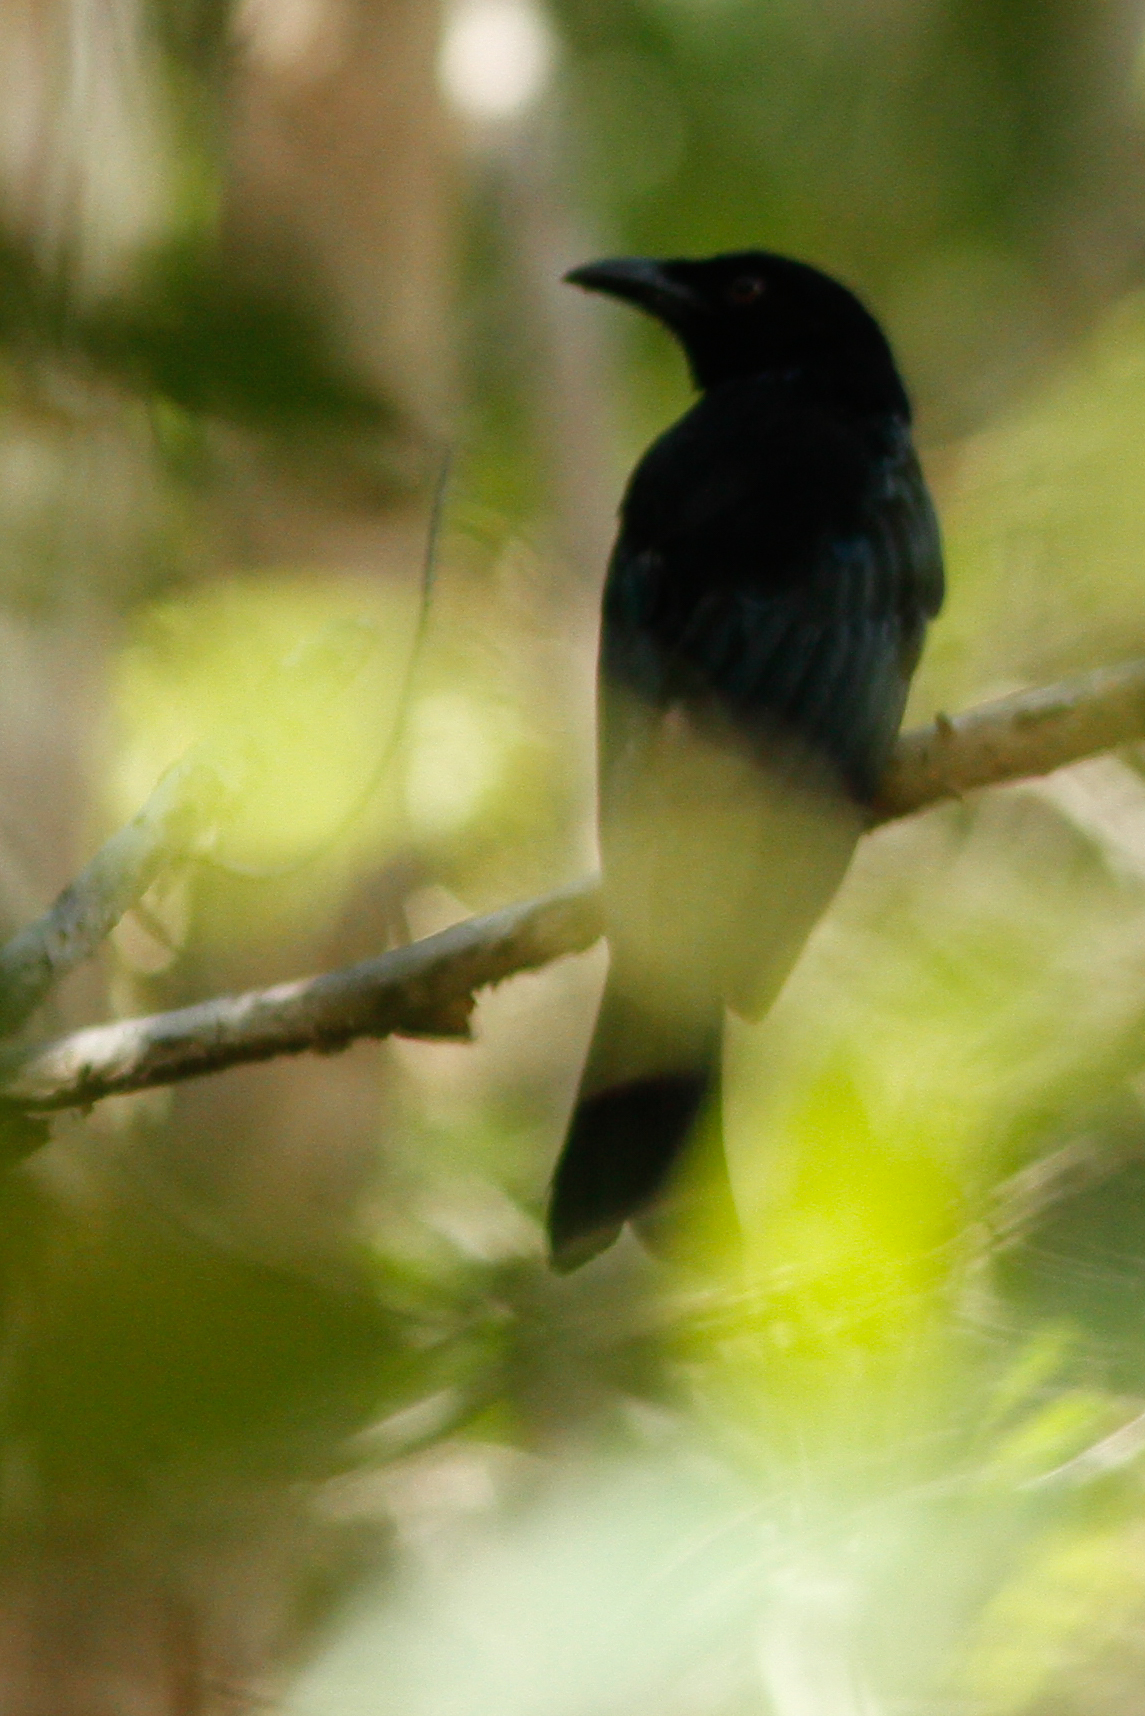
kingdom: Animalia
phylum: Chordata
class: Aves
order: Passeriformes
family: Dicruridae
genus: Dicrurus
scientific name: Dicrurus bracteatus
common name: Spangled drongo
